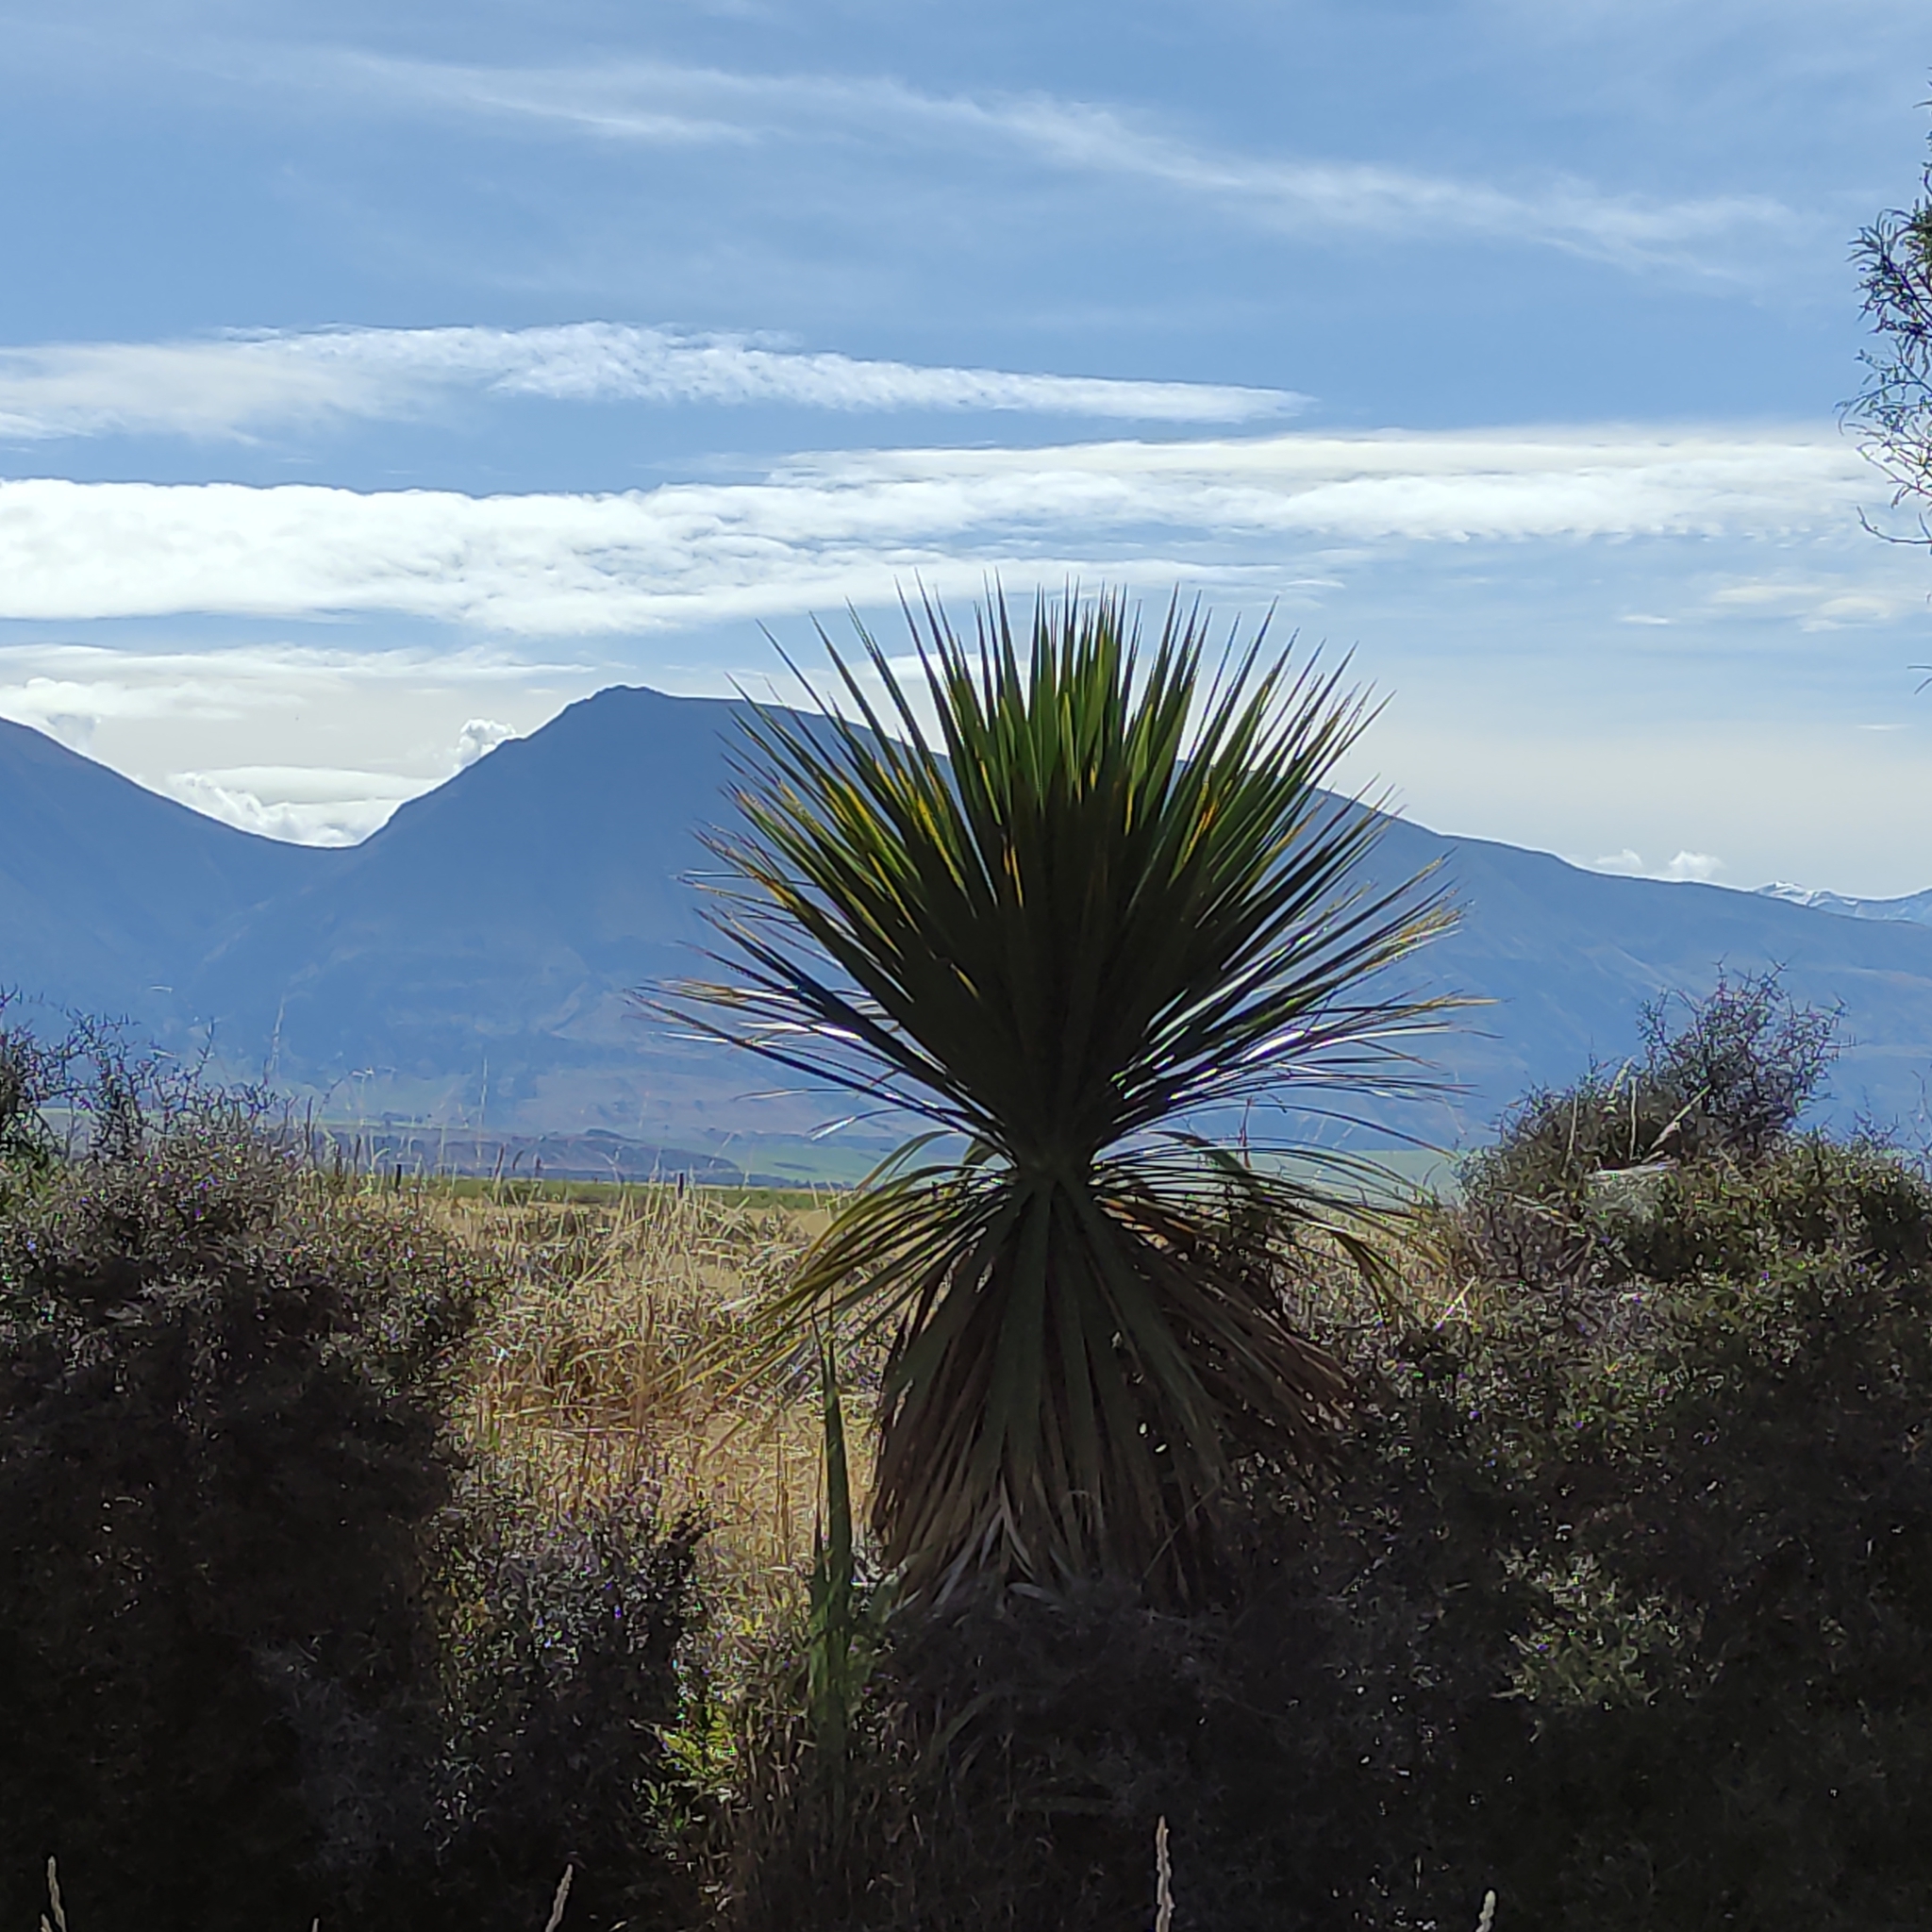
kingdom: Plantae
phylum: Tracheophyta
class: Liliopsida
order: Asparagales
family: Asparagaceae
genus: Cordyline
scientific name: Cordyline australis
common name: Cabbage-palm
